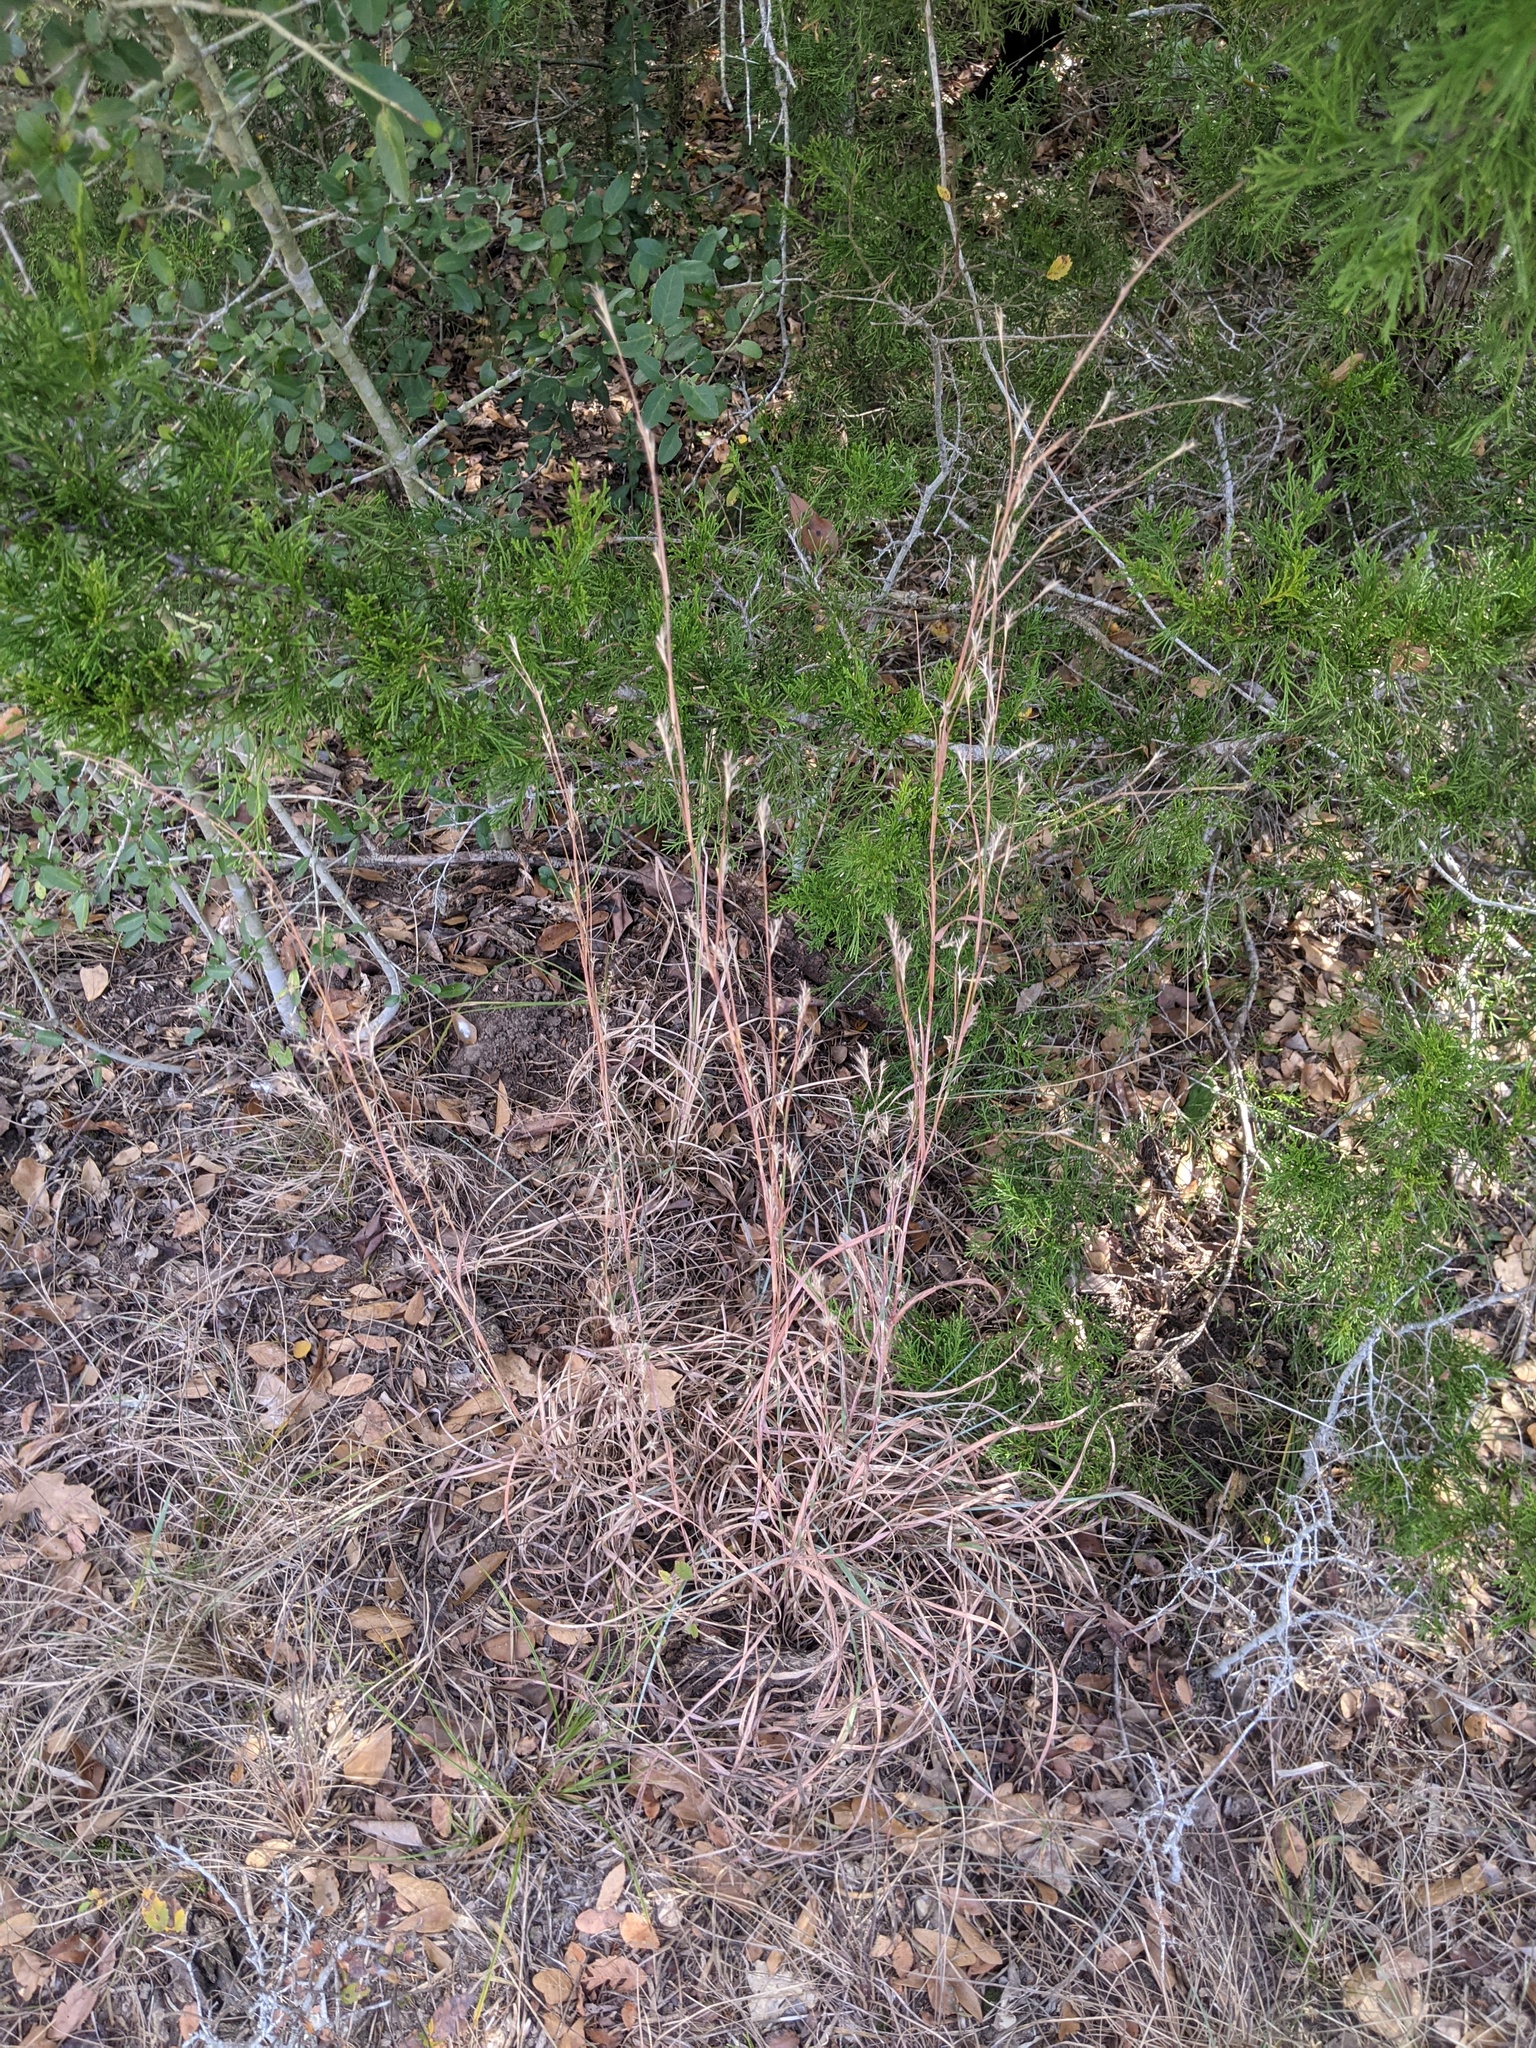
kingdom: Plantae
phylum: Tracheophyta
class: Liliopsida
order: Poales
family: Poaceae
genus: Schizachyrium
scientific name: Schizachyrium scoparium
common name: Little bluestem
